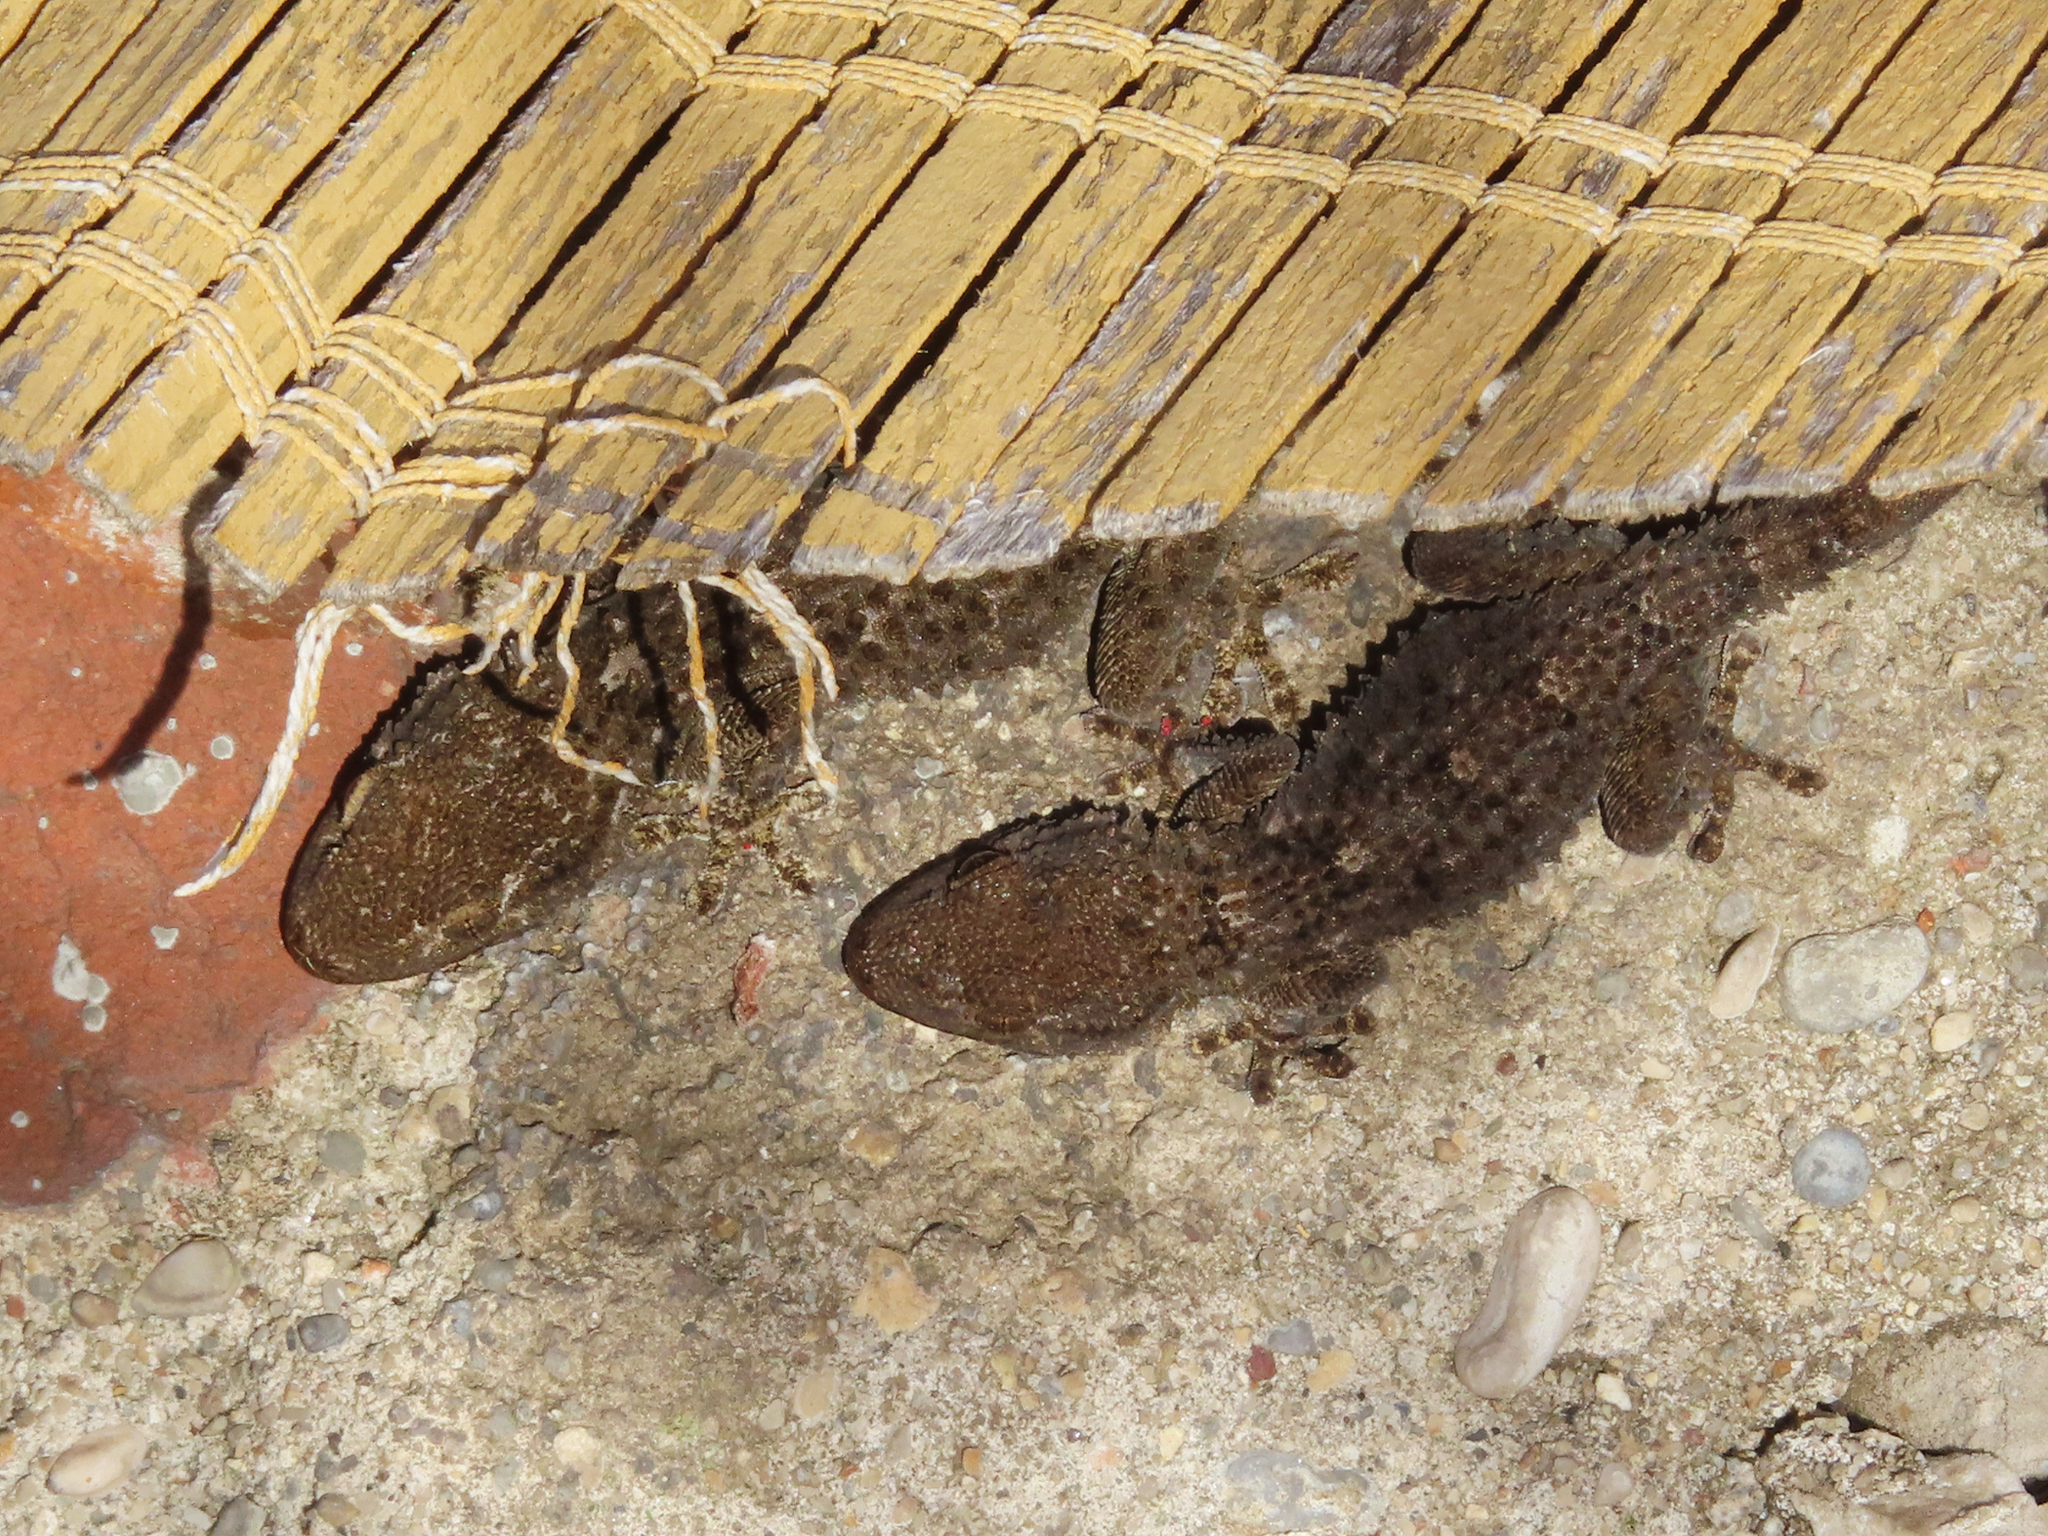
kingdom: Animalia
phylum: Chordata
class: Squamata
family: Phyllodactylidae
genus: Tarentola
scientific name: Tarentola mauritanica
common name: Moorish gecko
